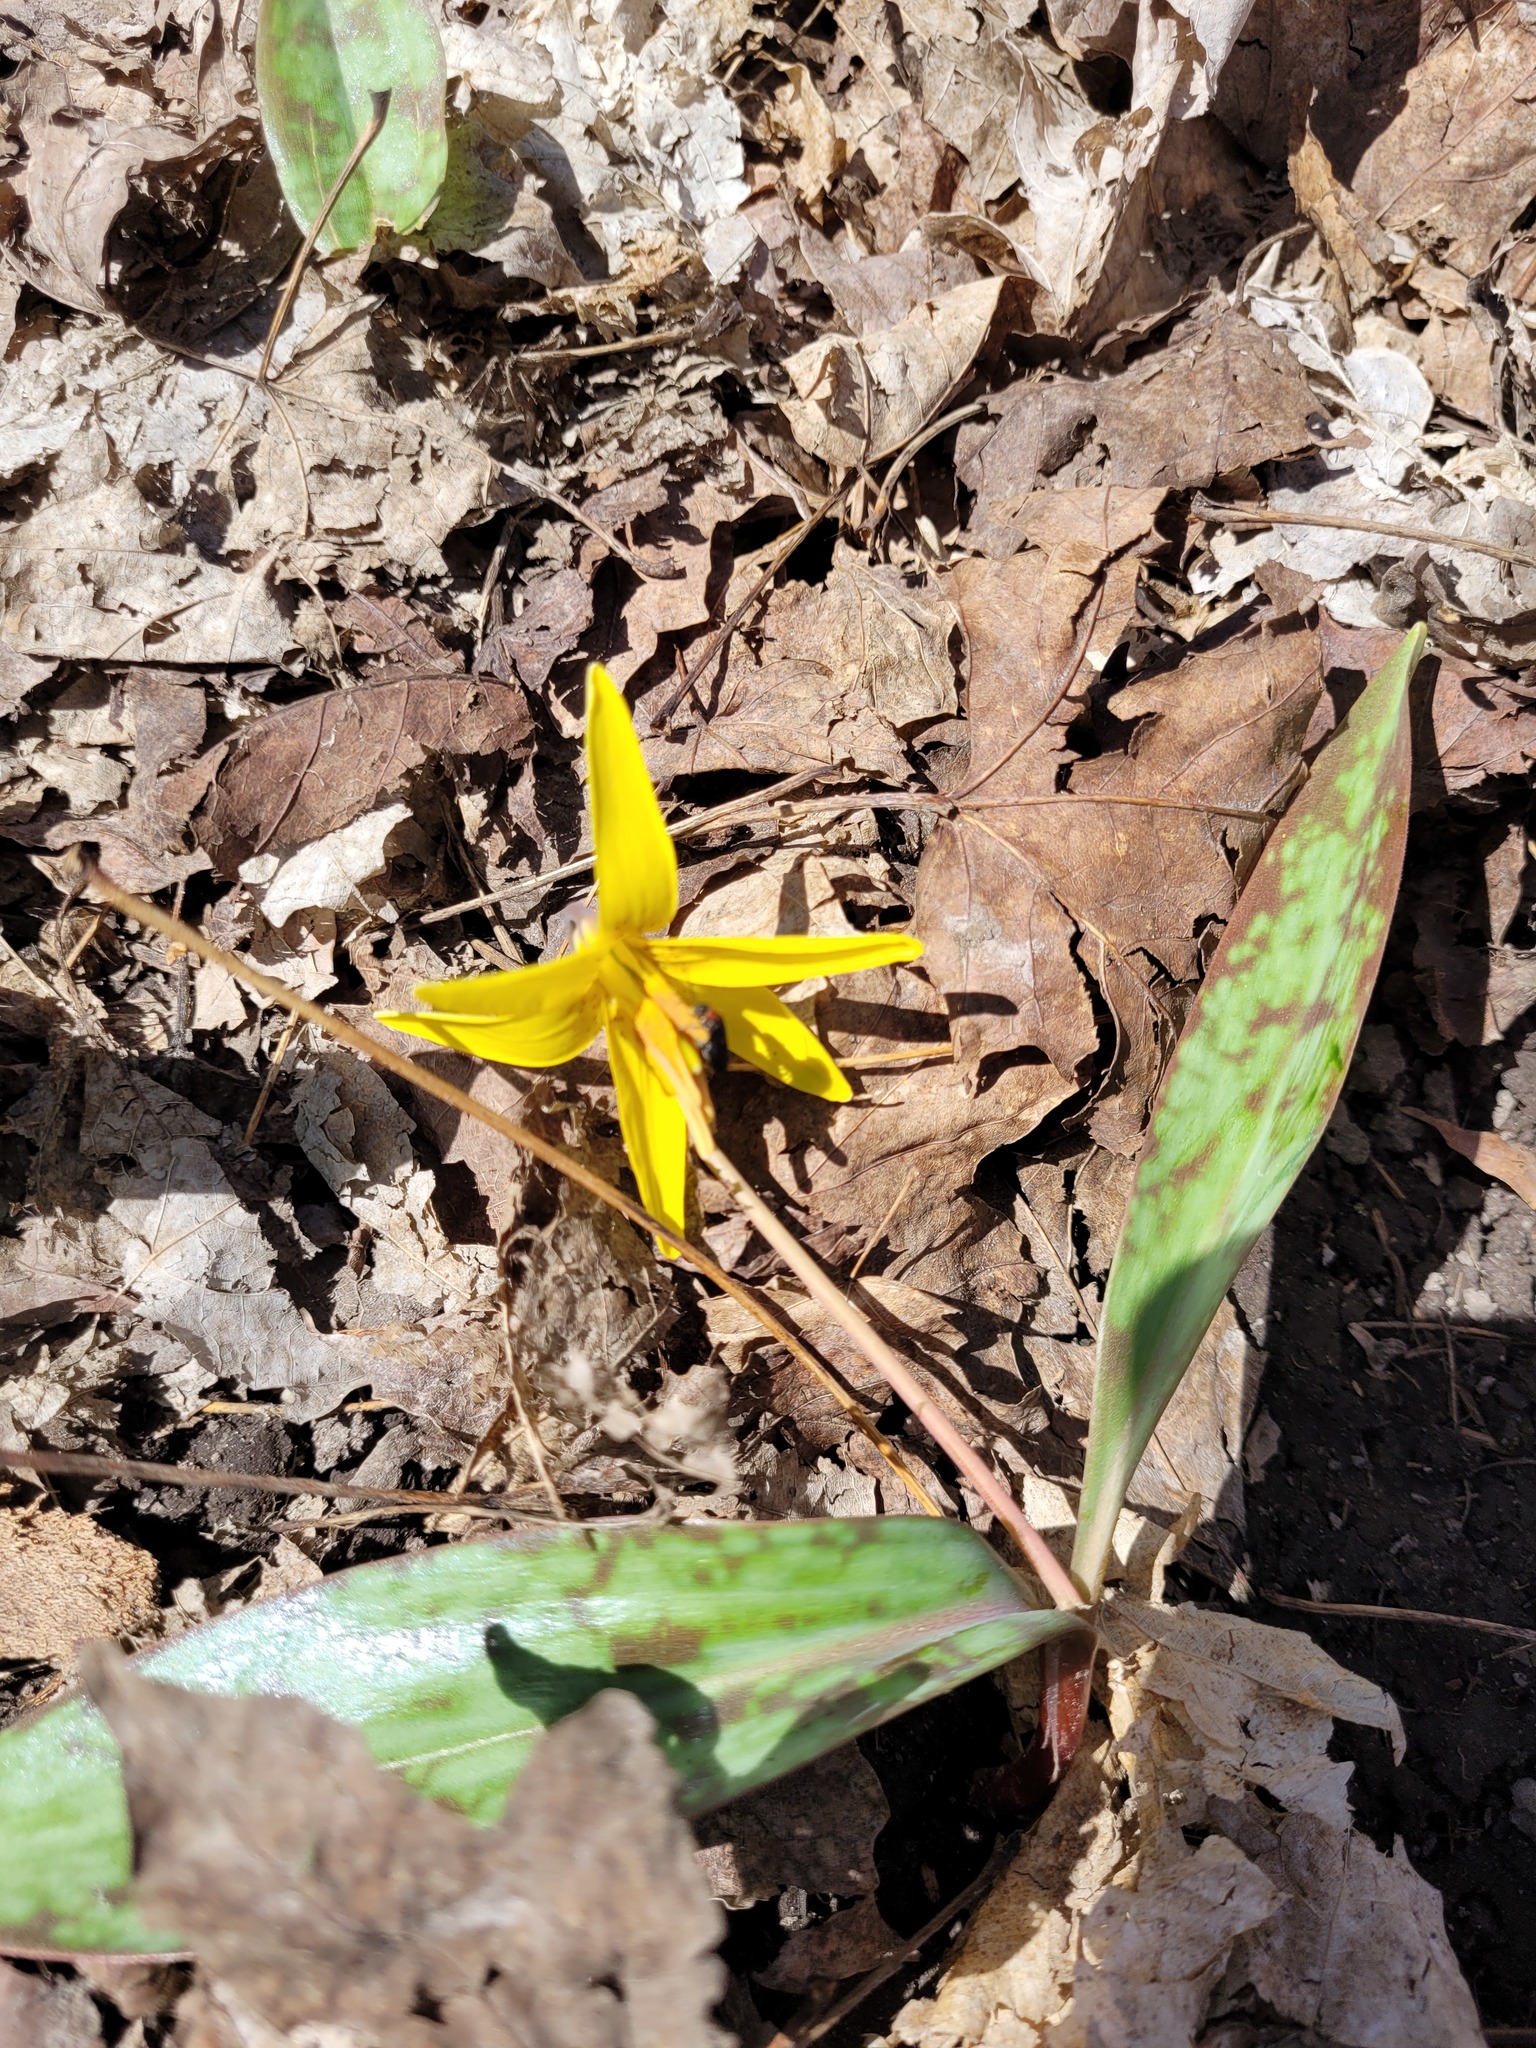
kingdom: Plantae
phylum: Tracheophyta
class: Liliopsida
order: Liliales
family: Liliaceae
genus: Erythronium
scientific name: Erythronium americanum
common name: Yellow adder's-tongue
